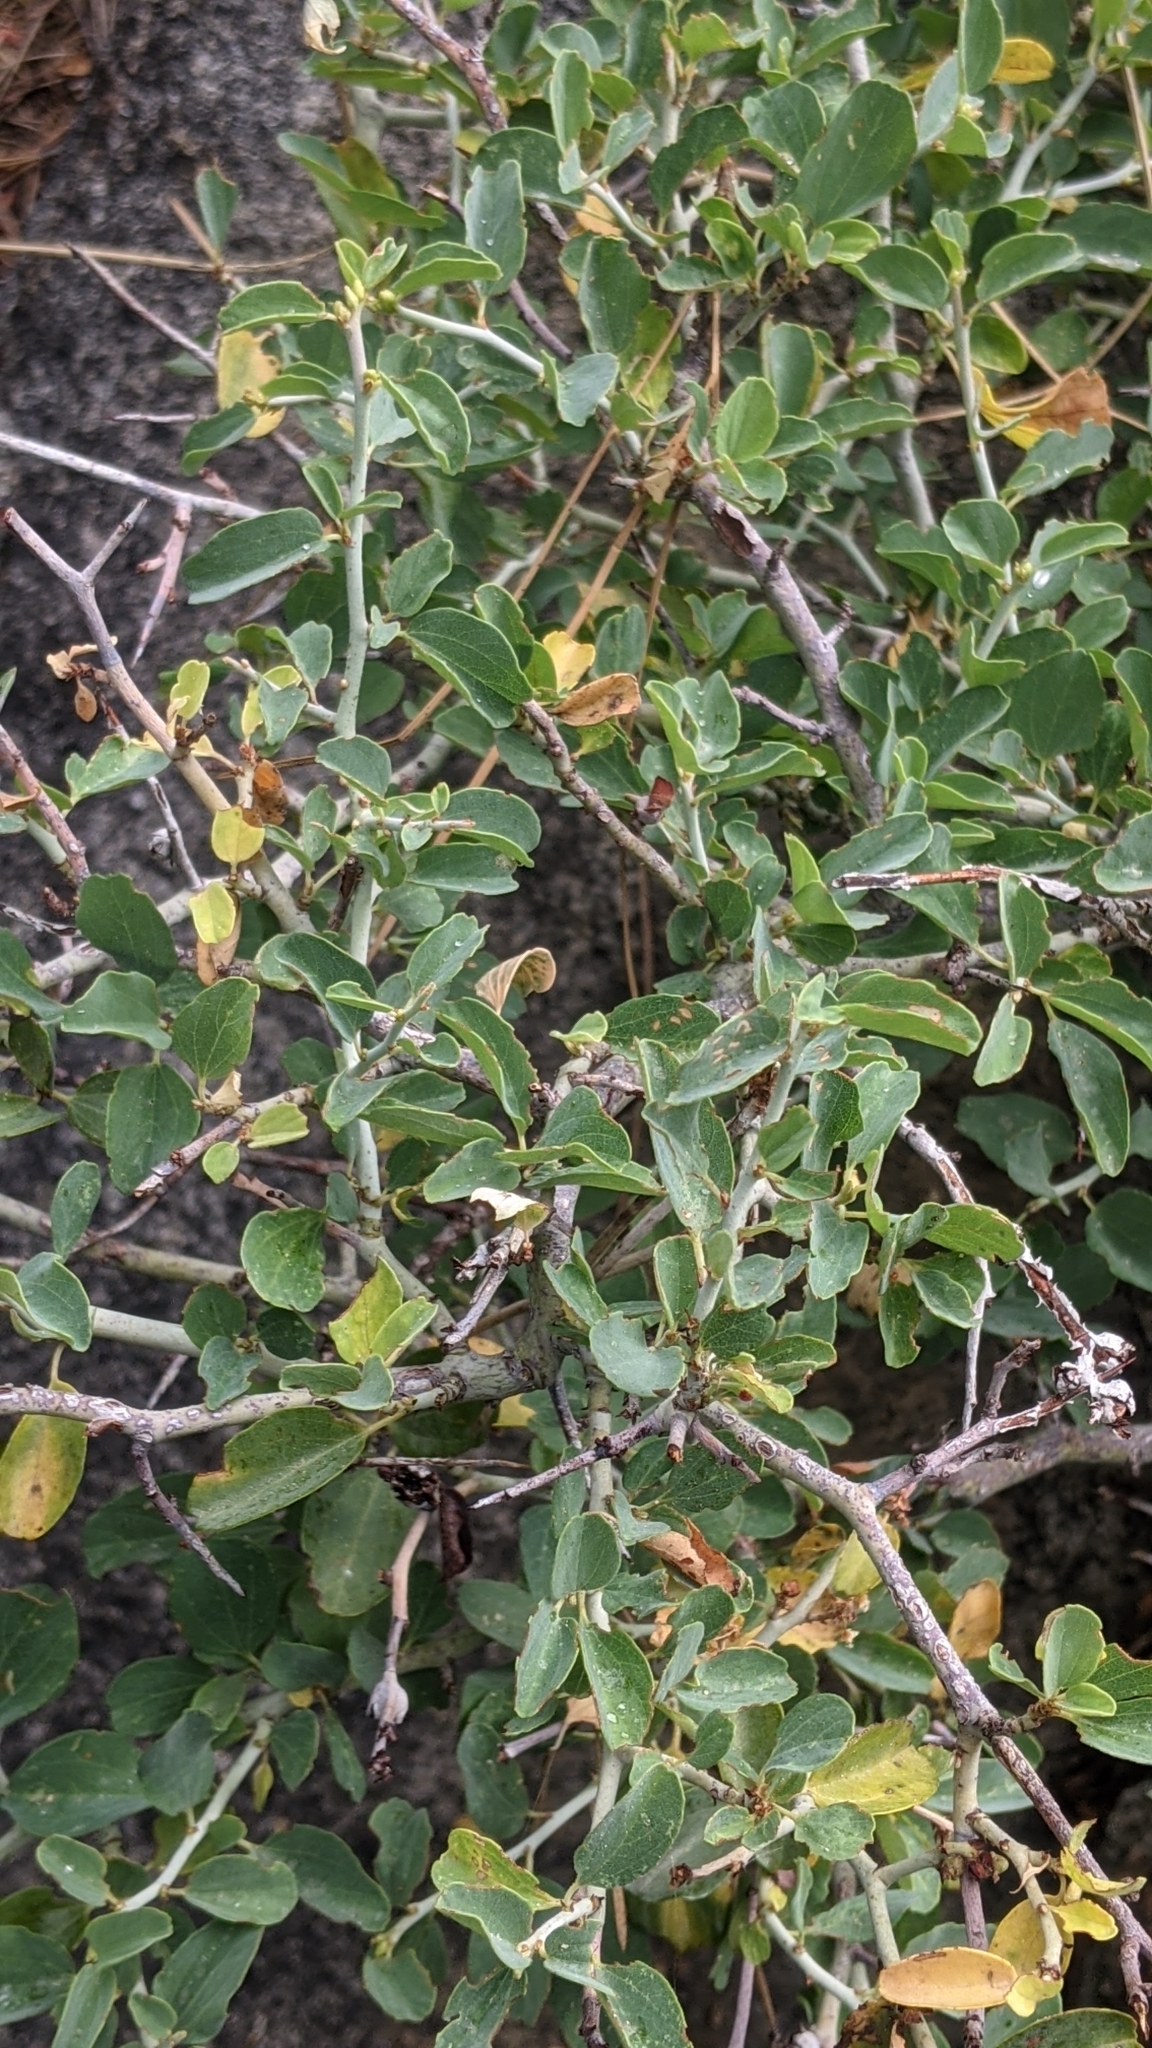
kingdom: Plantae
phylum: Tracheophyta
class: Magnoliopsida
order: Rosales
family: Rhamnaceae
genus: Ceanothus
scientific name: Ceanothus cordulatus
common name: Mountain whitethorn
